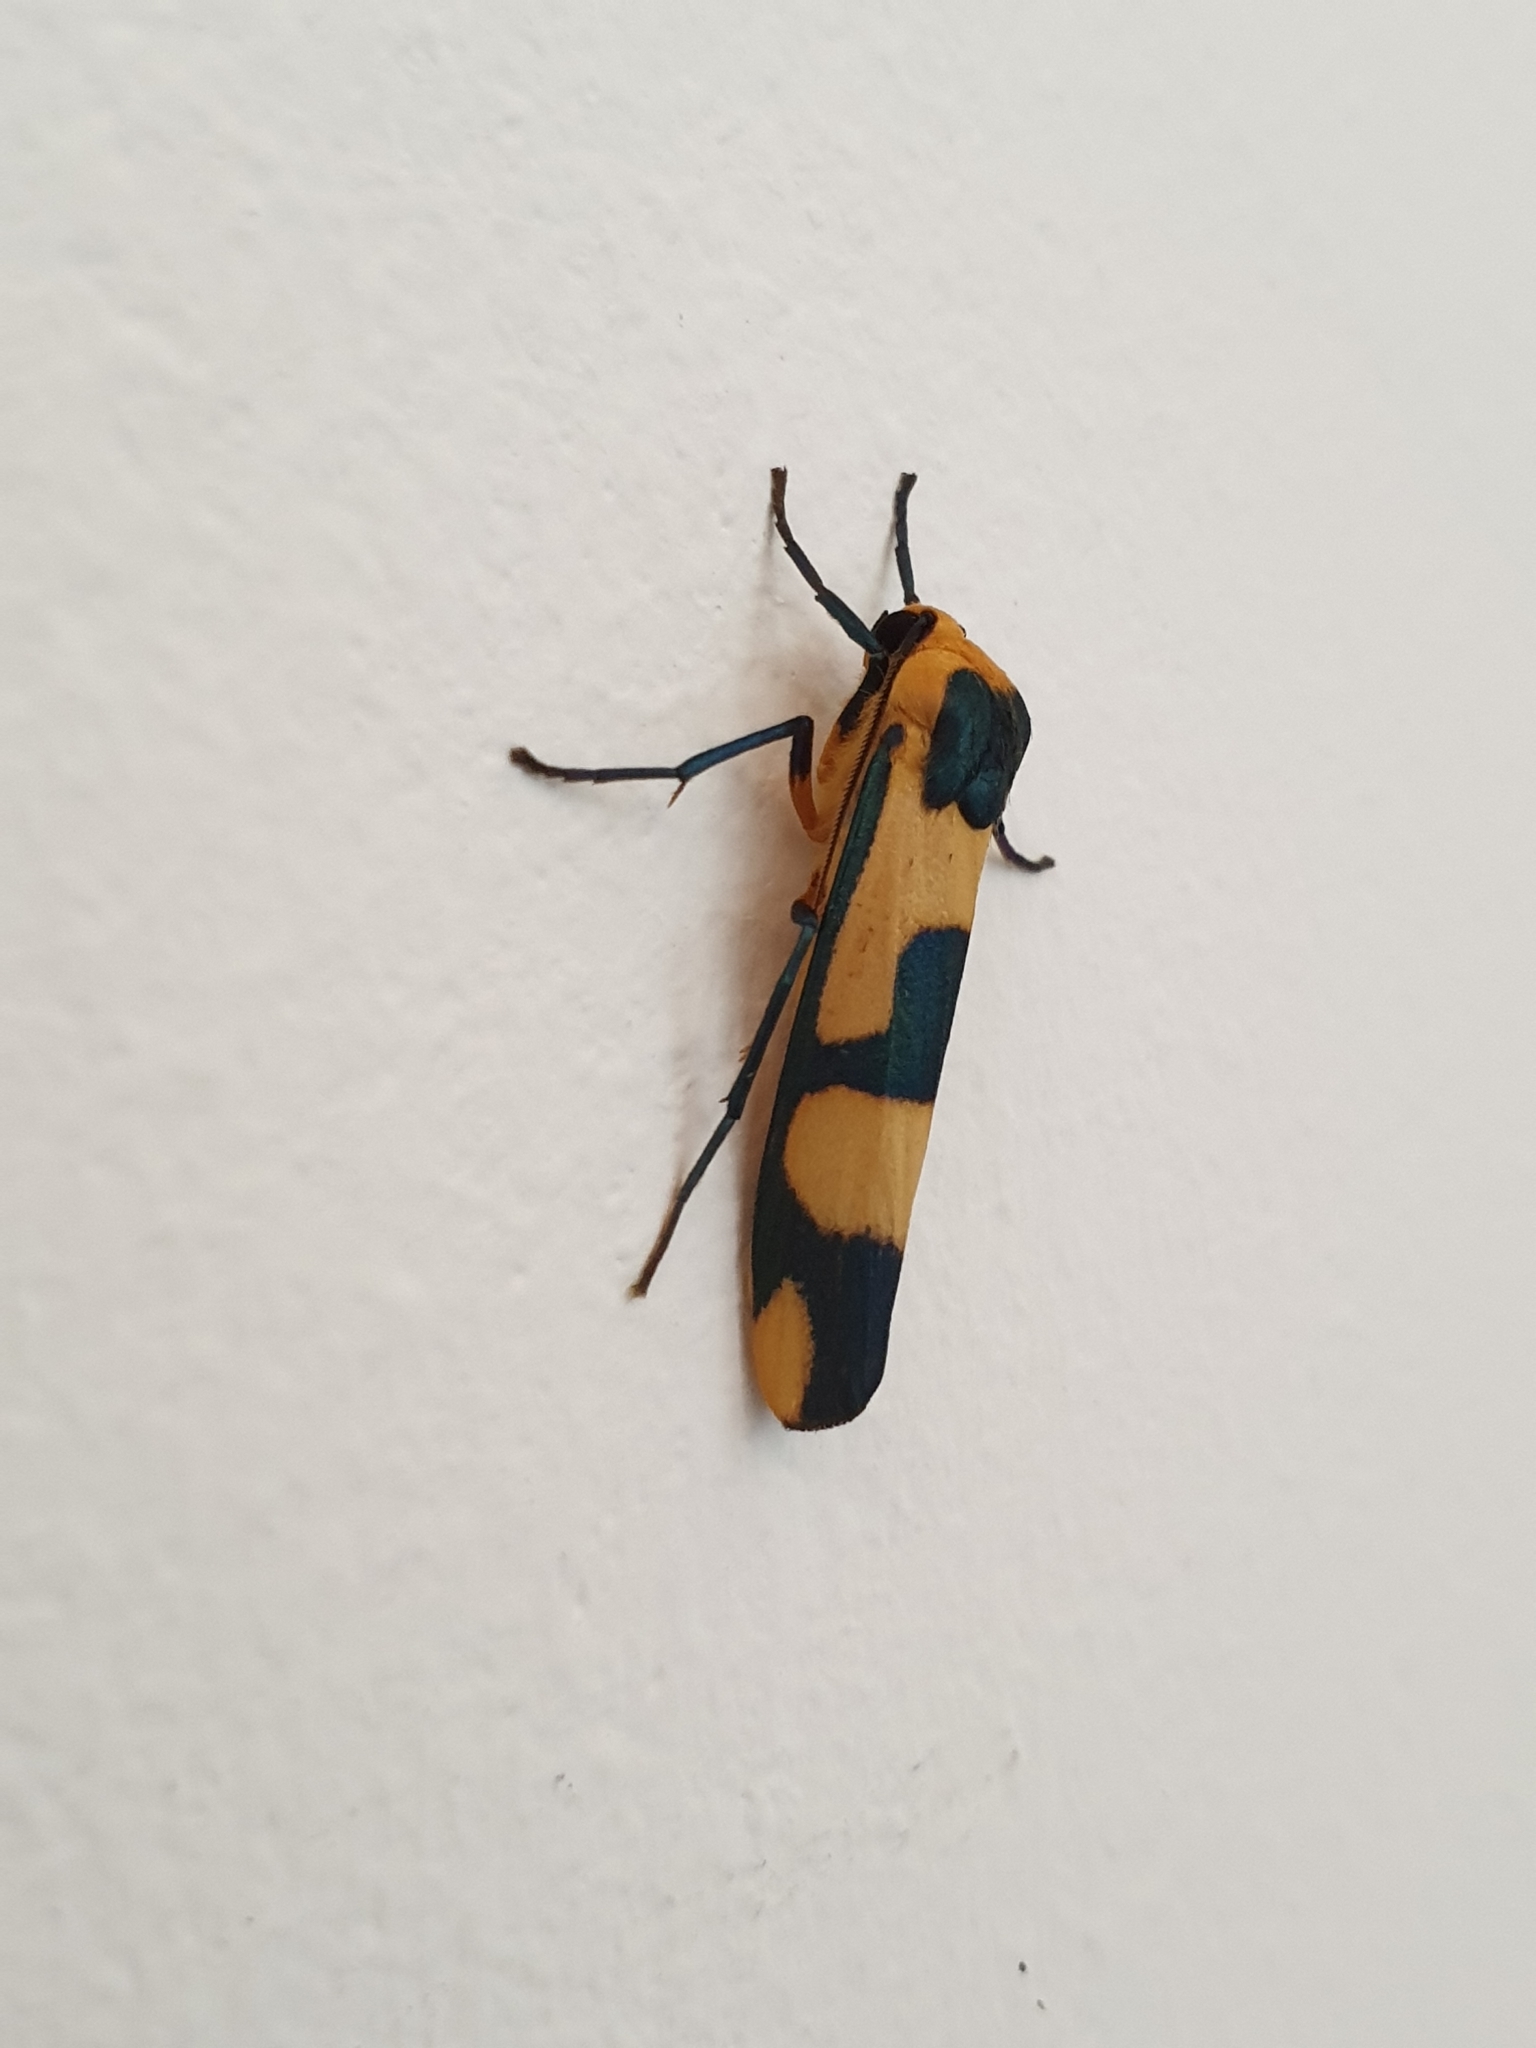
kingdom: Animalia
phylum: Arthropoda
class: Insecta
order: Lepidoptera
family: Erebidae
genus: Oeonistis
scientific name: Oeonistis entella
